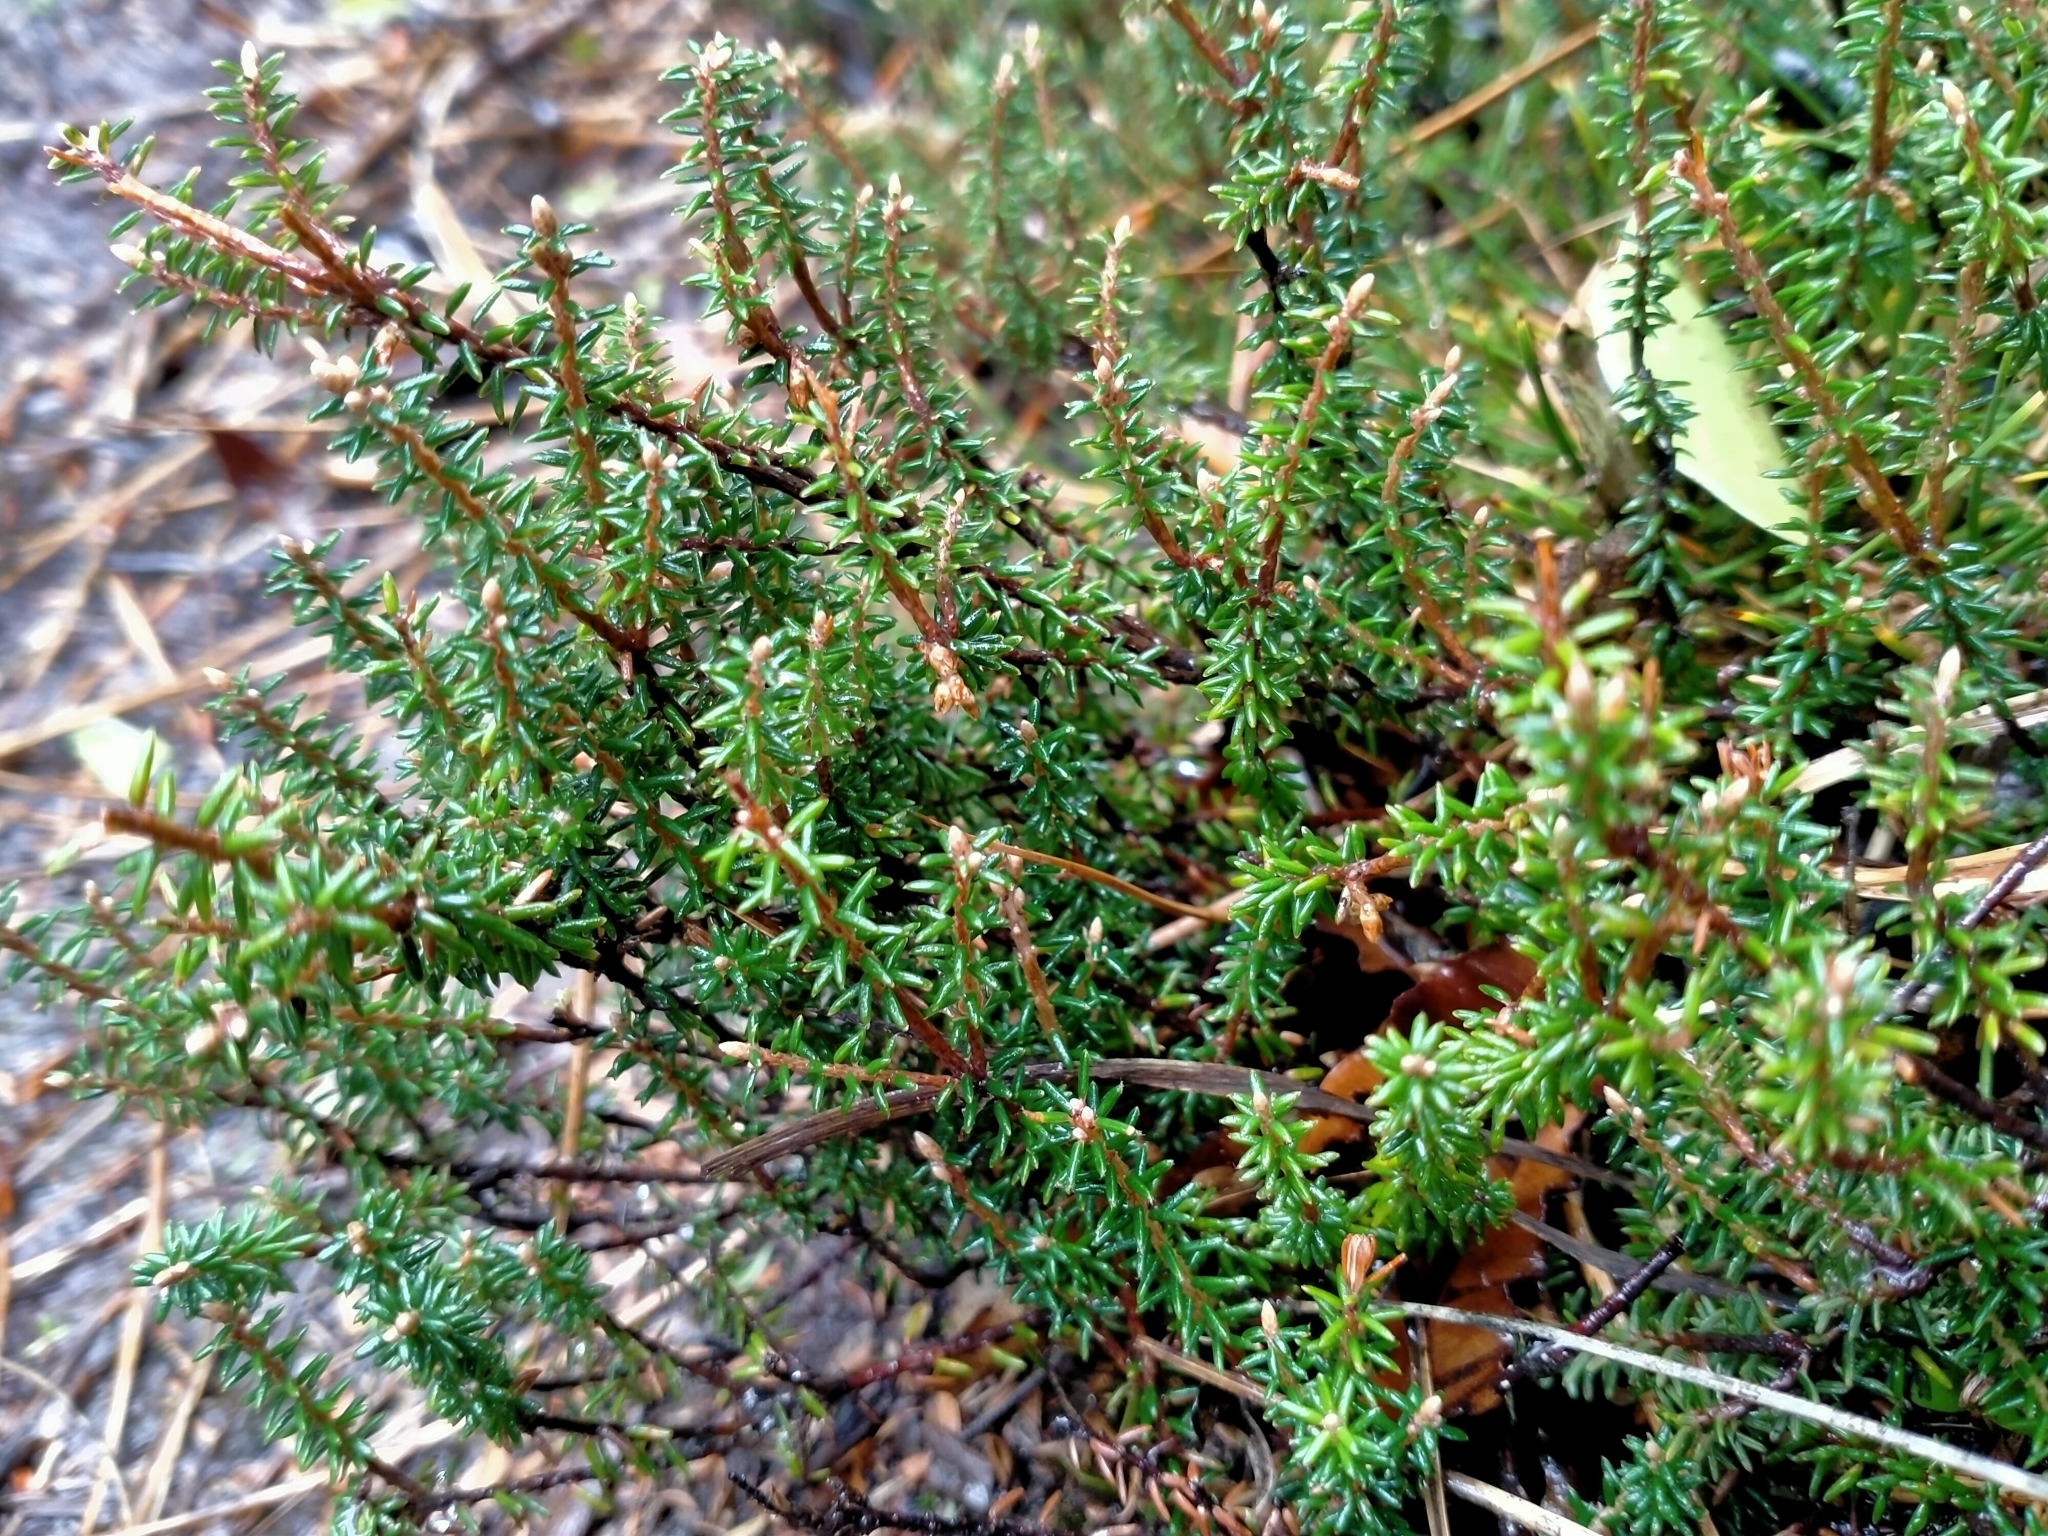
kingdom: Plantae
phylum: Tracheophyta
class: Magnoliopsida
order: Ericales
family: Ericaceae
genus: Androstoma
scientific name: Androstoma empetrifolia
